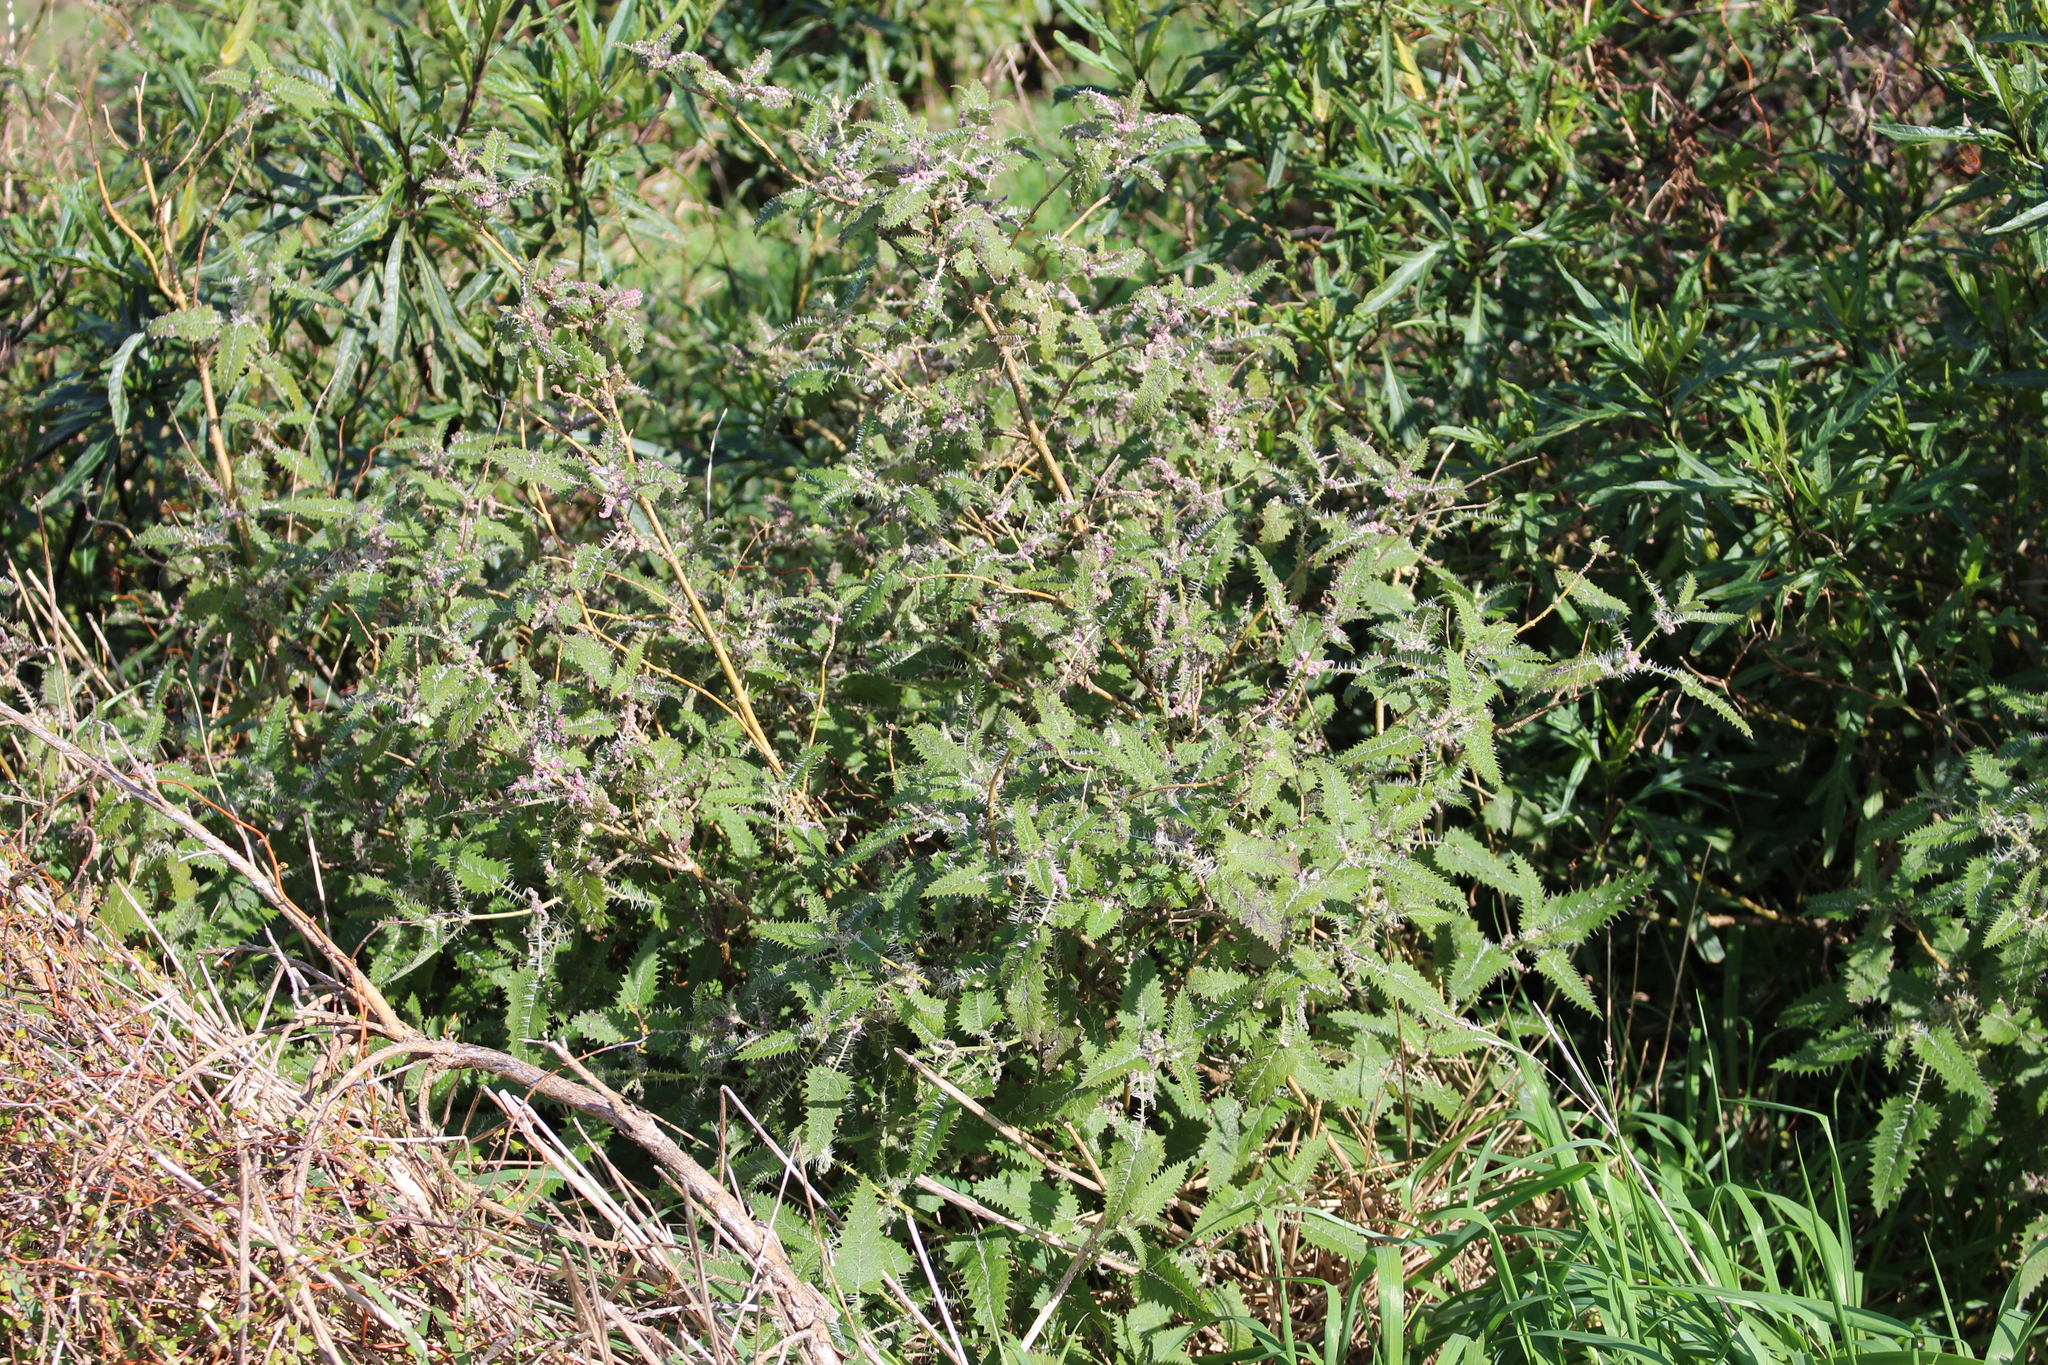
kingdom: Plantae
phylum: Tracheophyta
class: Magnoliopsida
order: Rosales
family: Urticaceae
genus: Urtica
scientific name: Urtica ferox
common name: Tree nettle
